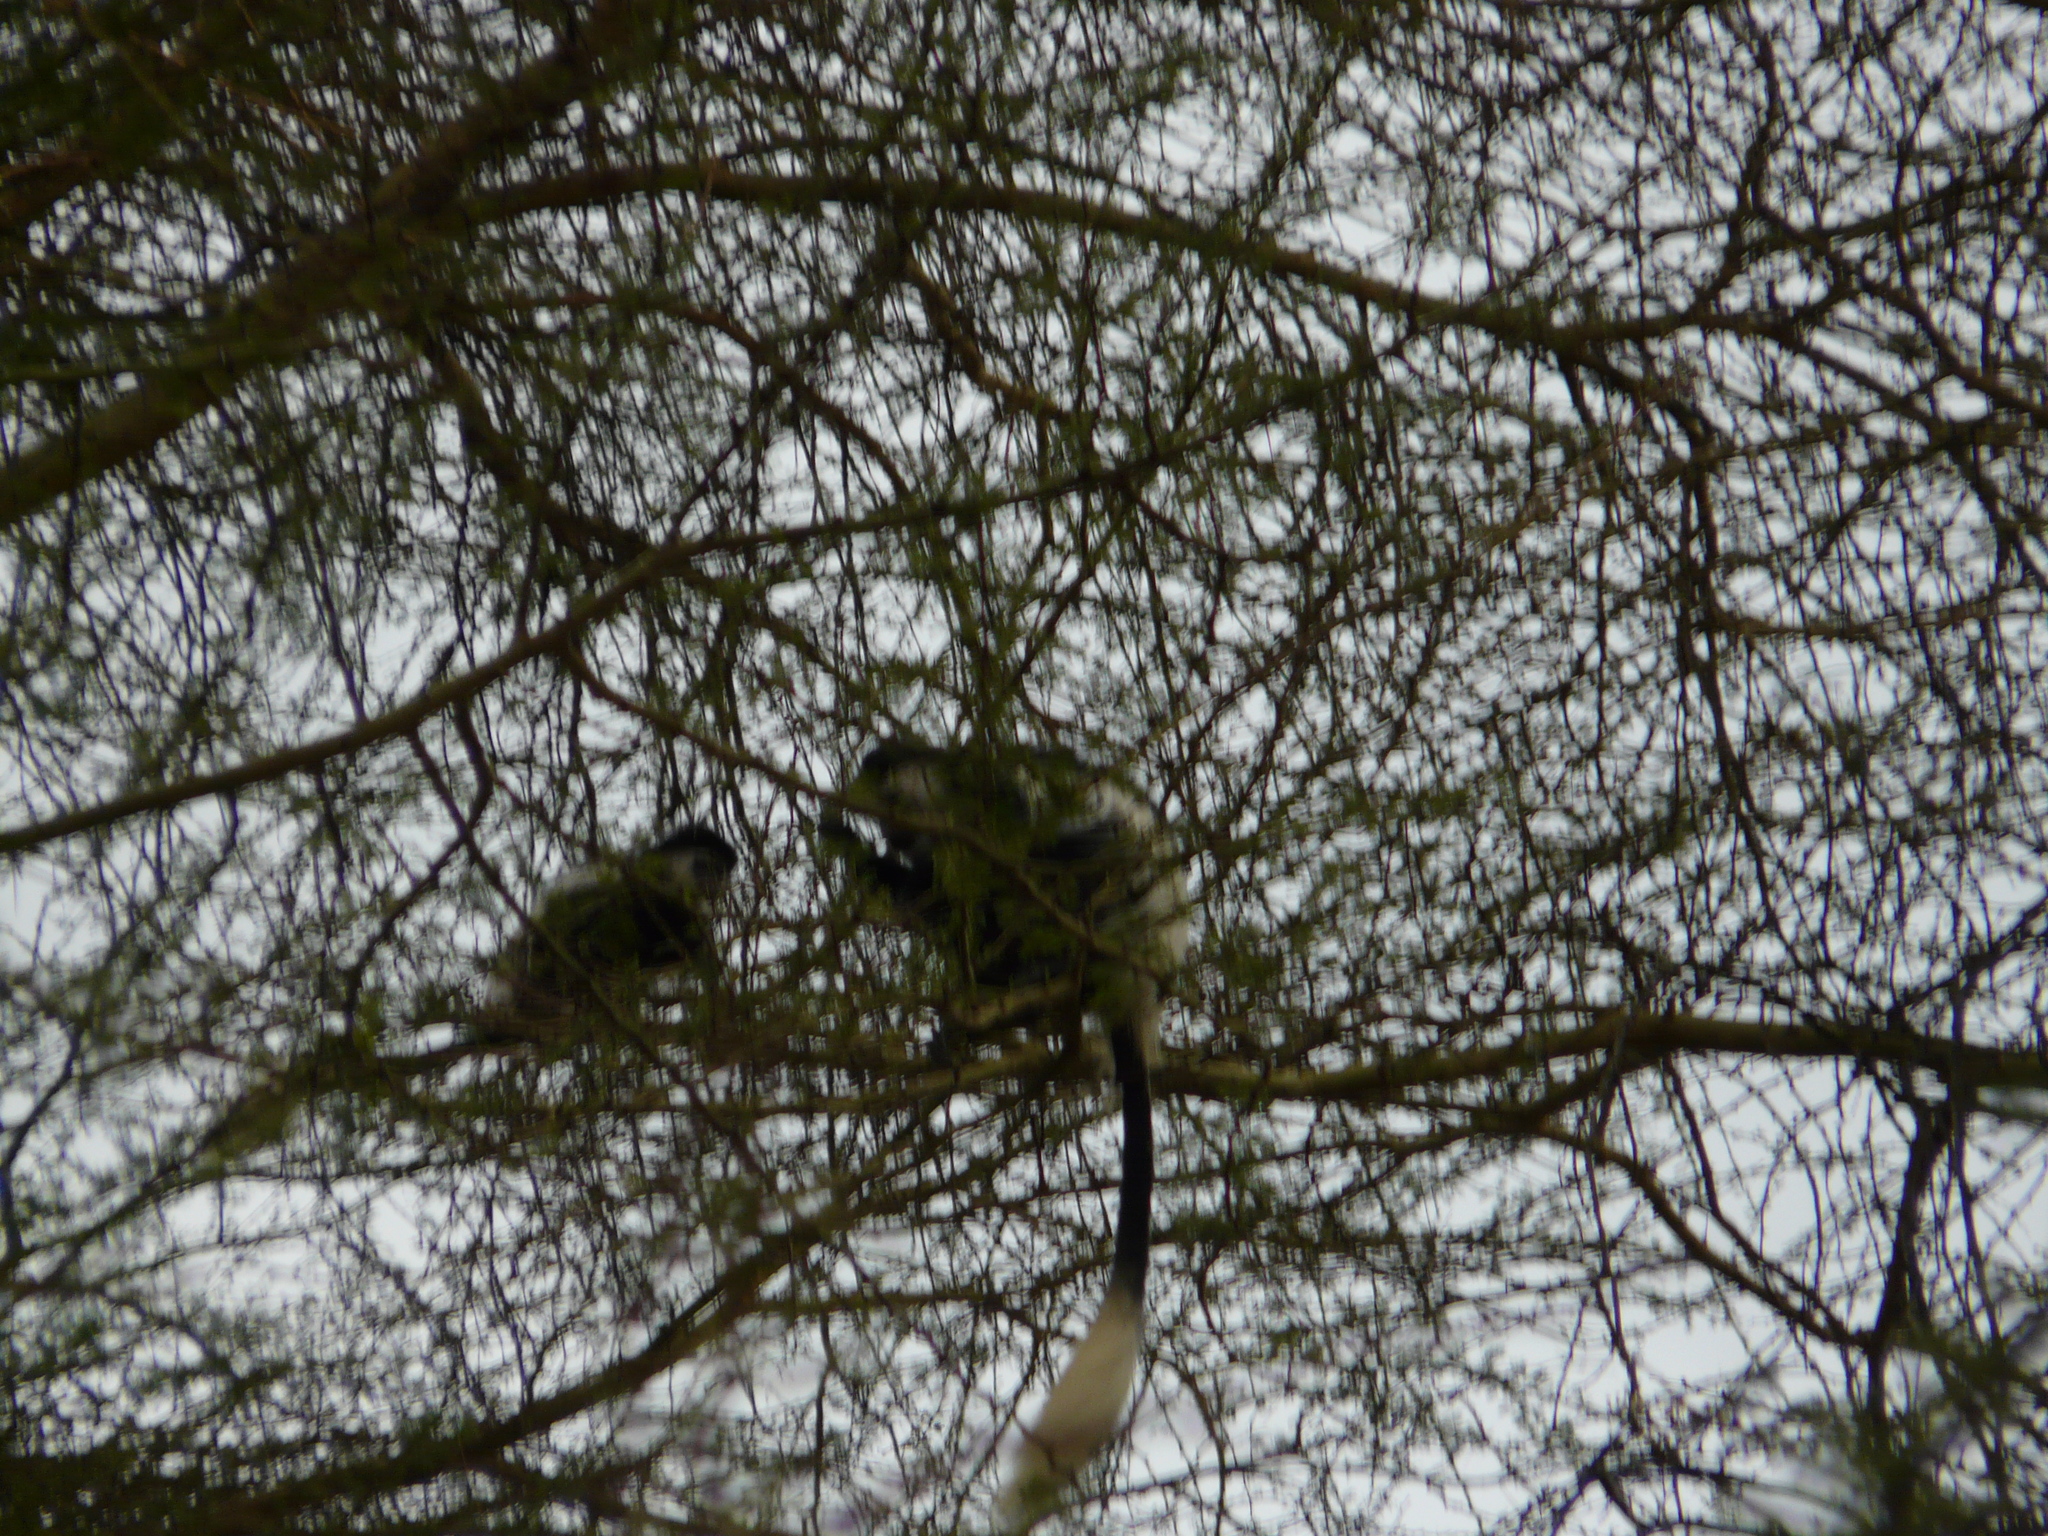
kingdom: Animalia
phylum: Chordata
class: Mammalia
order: Primates
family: Cercopithecidae
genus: Colobus
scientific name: Colobus guereza
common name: Mantled guereza
